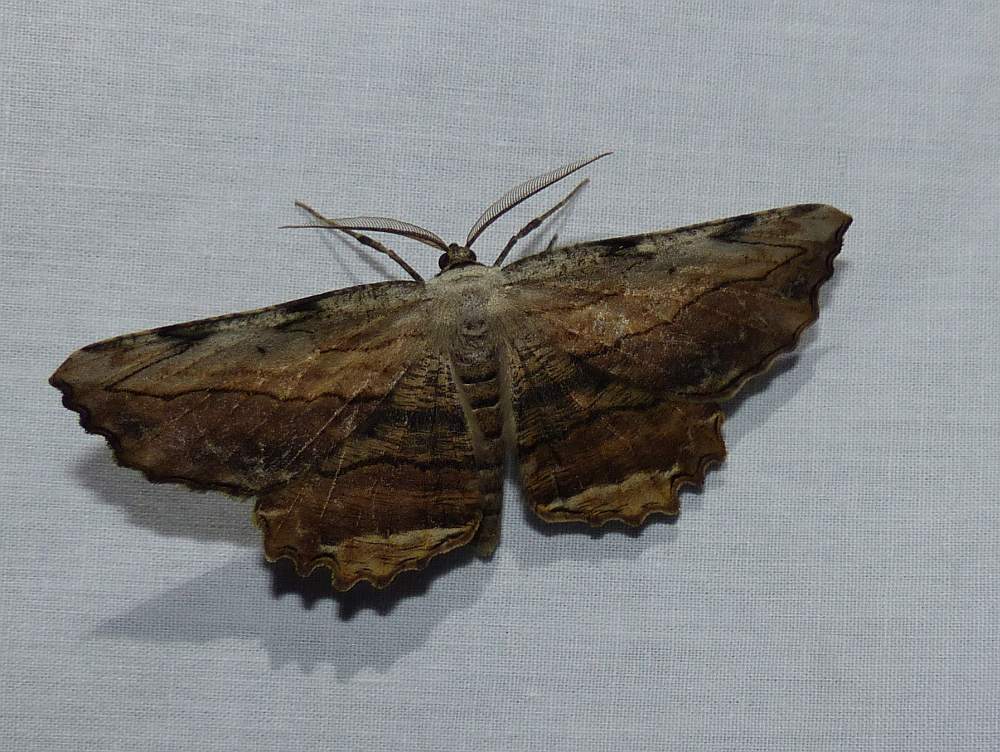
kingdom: Animalia
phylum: Arthropoda
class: Insecta
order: Lepidoptera
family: Geometridae
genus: Lytrosis
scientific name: Lytrosis unitaria
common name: Common lytrosis
